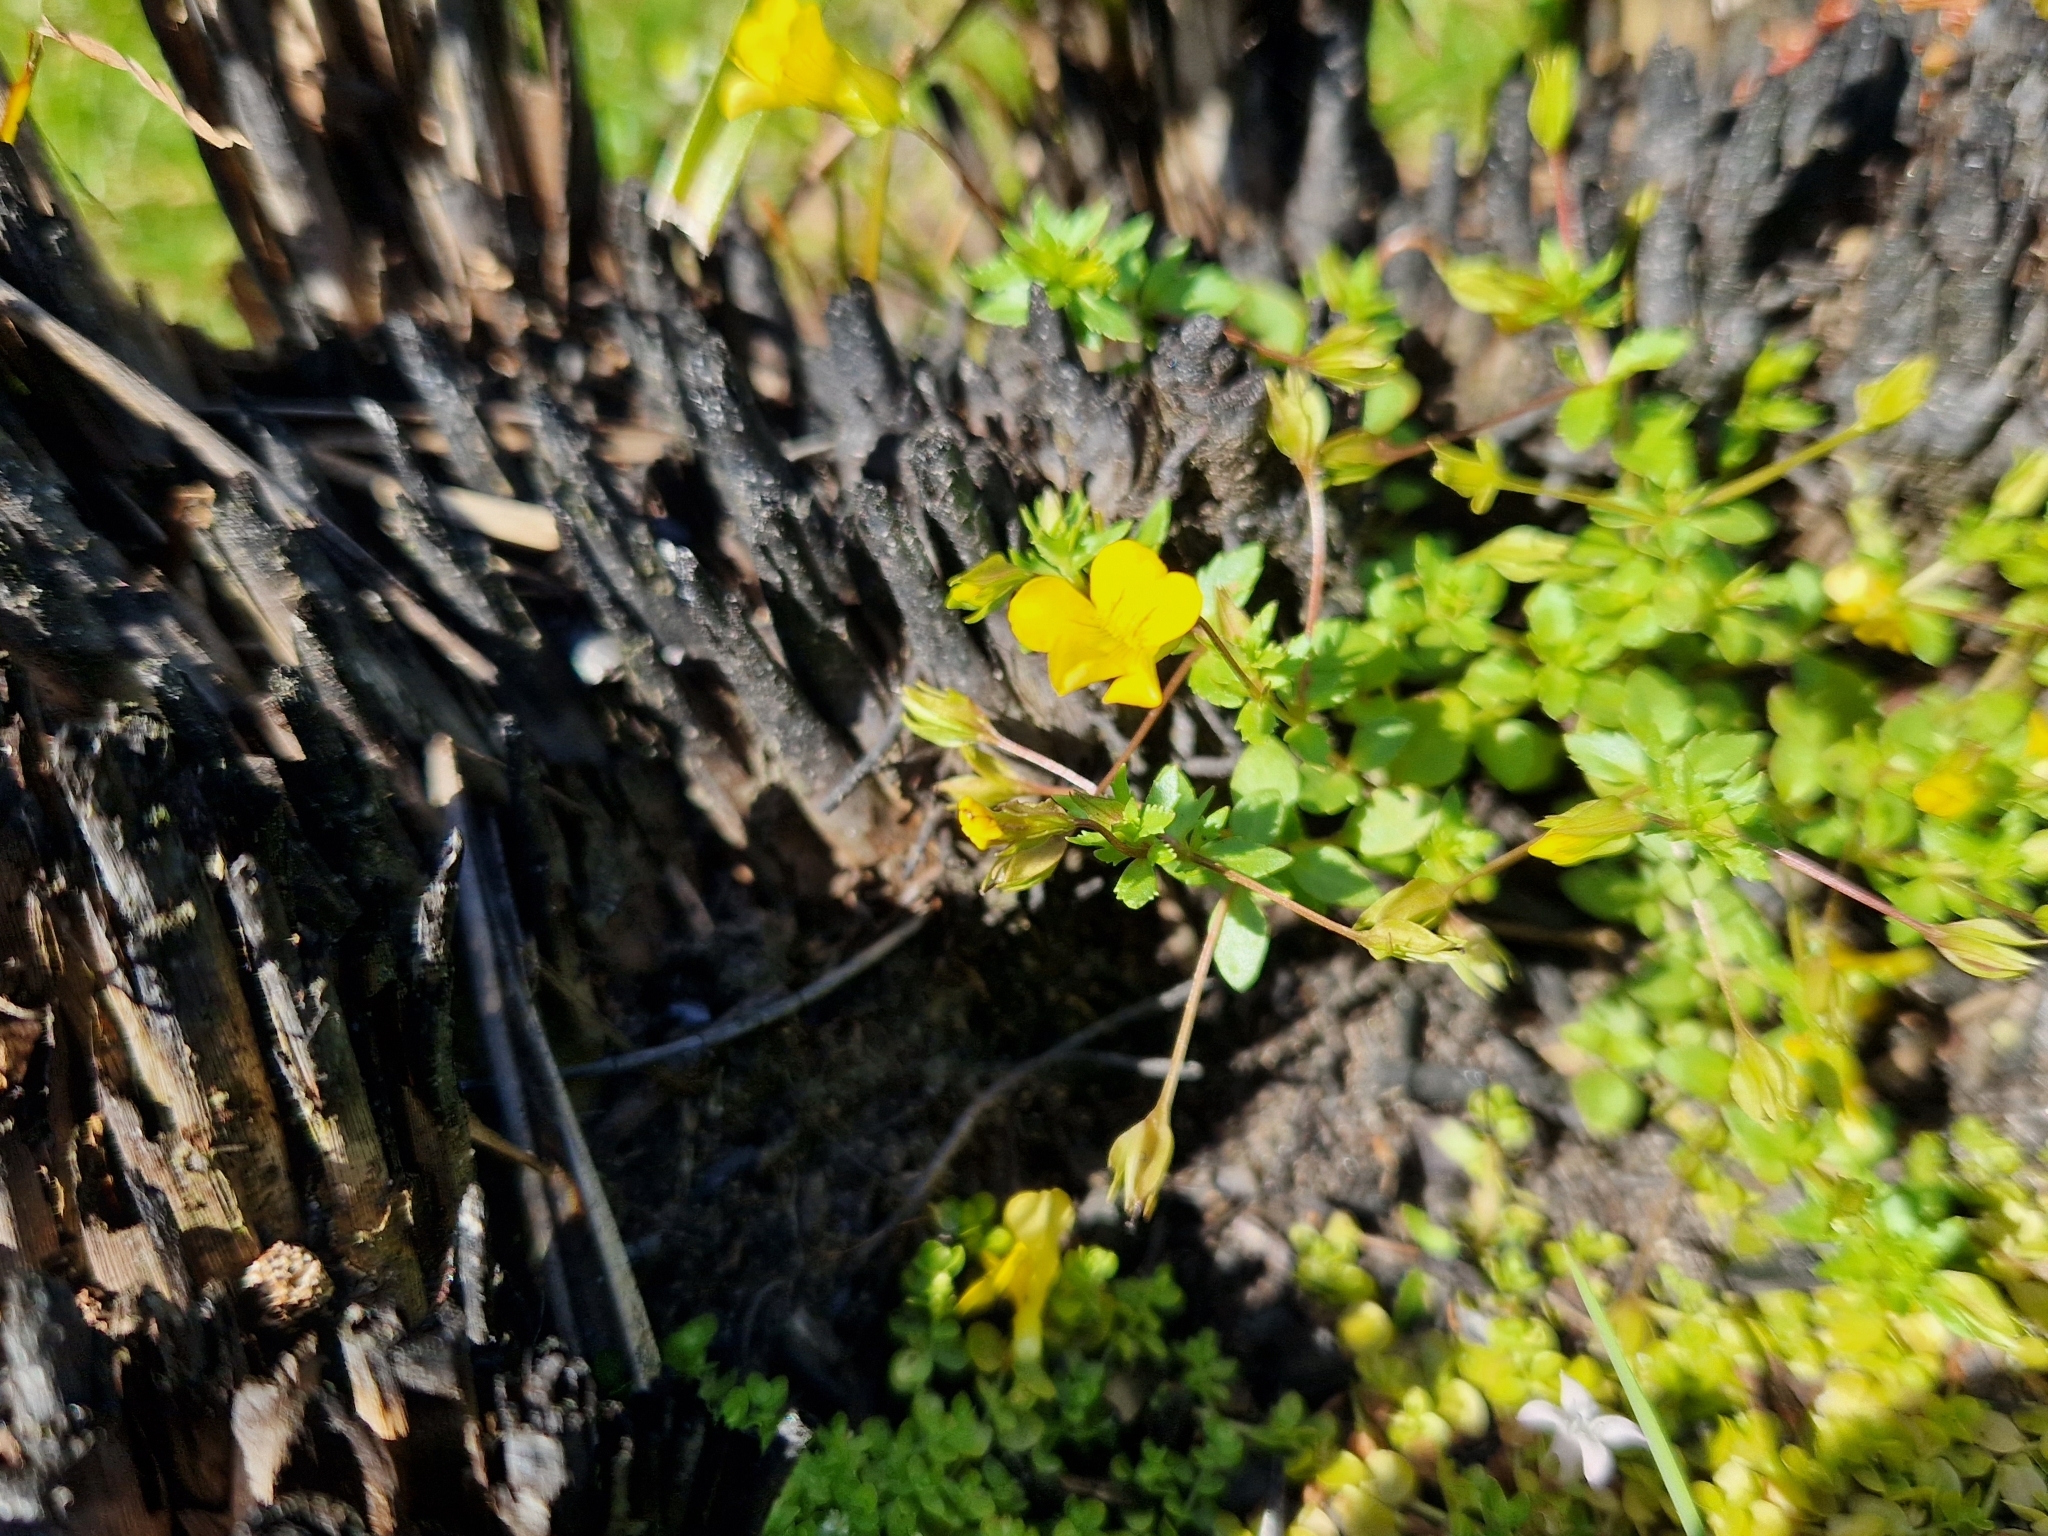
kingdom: Plantae
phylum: Tracheophyta
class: Magnoliopsida
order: Lamiales
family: Plantaginaceae
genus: Mecardonia
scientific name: Mecardonia procumbens
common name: Baby jump-up
